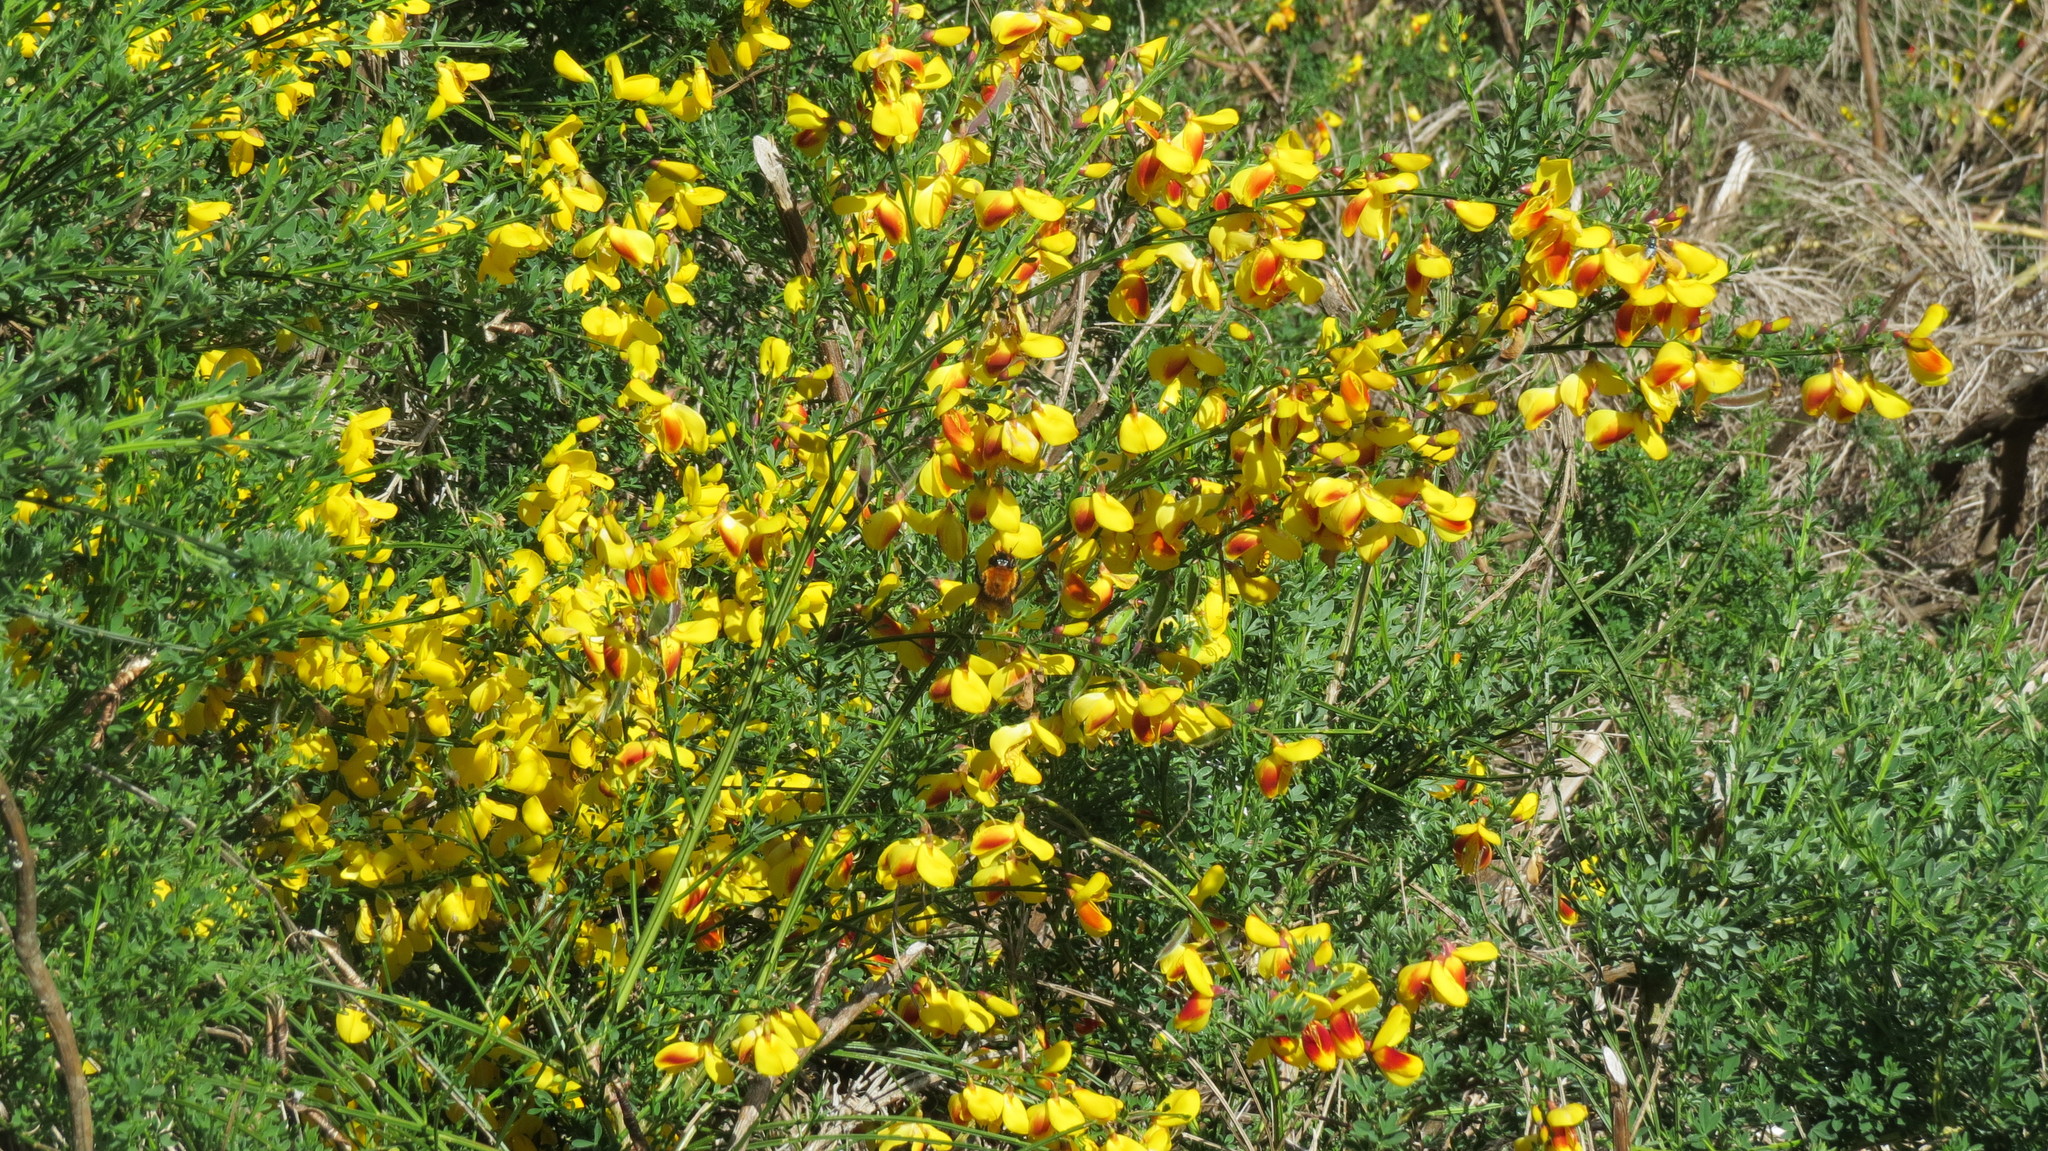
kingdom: Plantae
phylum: Tracheophyta
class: Magnoliopsida
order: Fabales
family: Fabaceae
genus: Cytisus
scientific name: Cytisus scoparius
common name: Scotch broom
